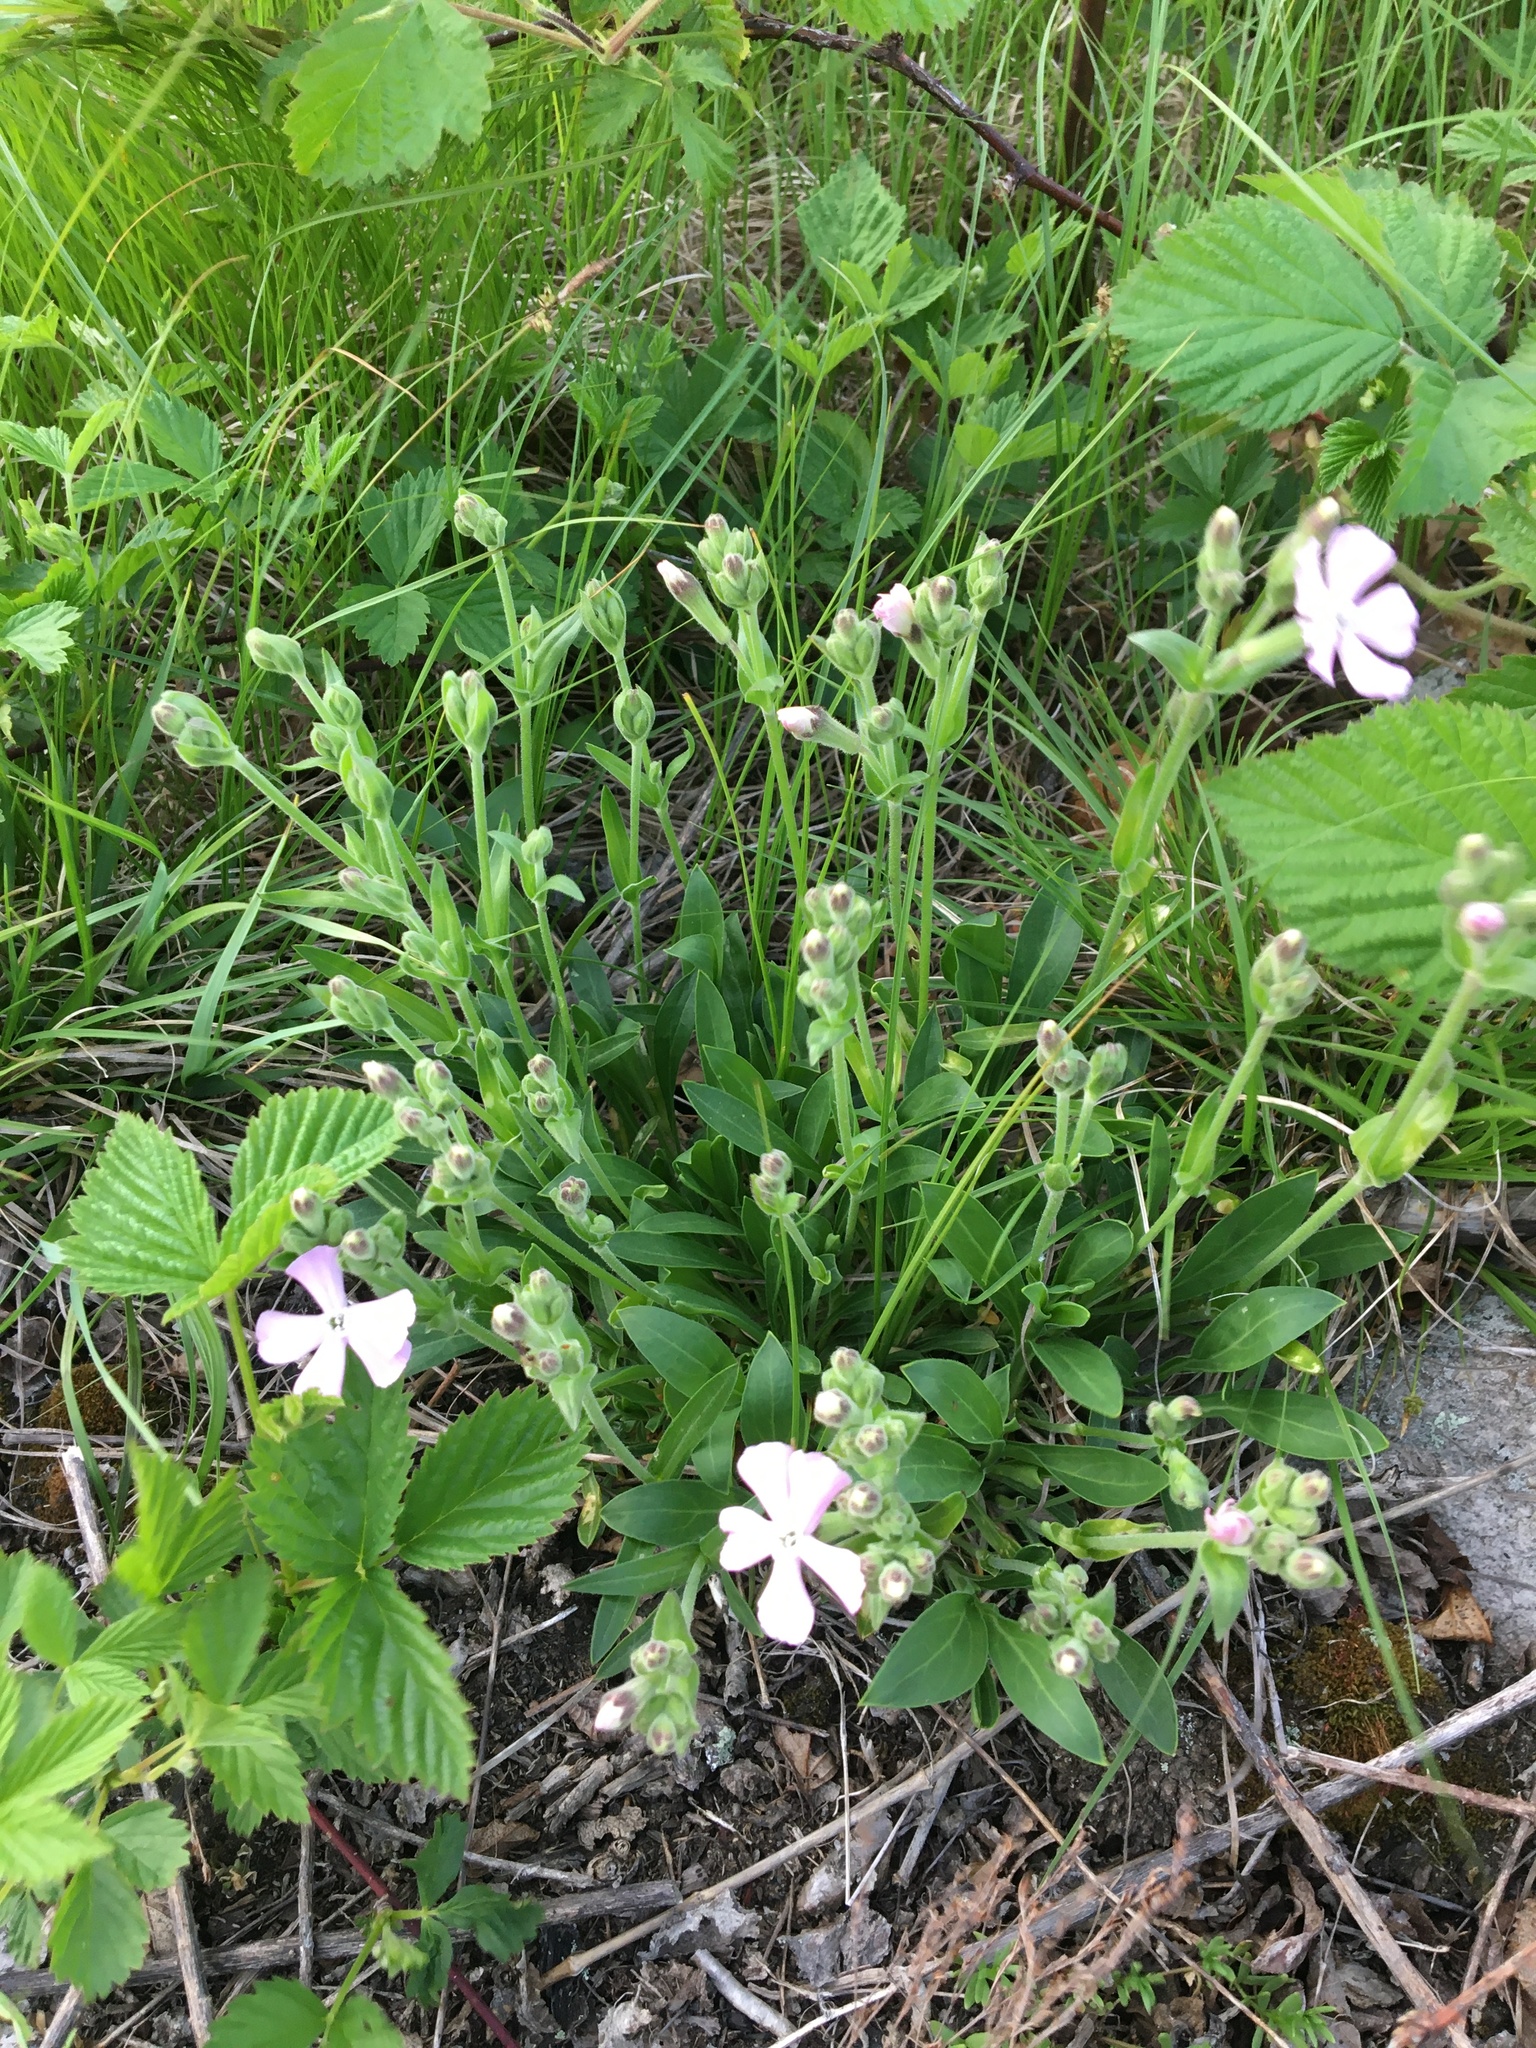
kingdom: Plantae
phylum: Tracheophyta
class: Magnoliopsida
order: Caryophyllales
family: Caryophyllaceae
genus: Silene
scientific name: Silene caroliniana
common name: Sticky catchfly
